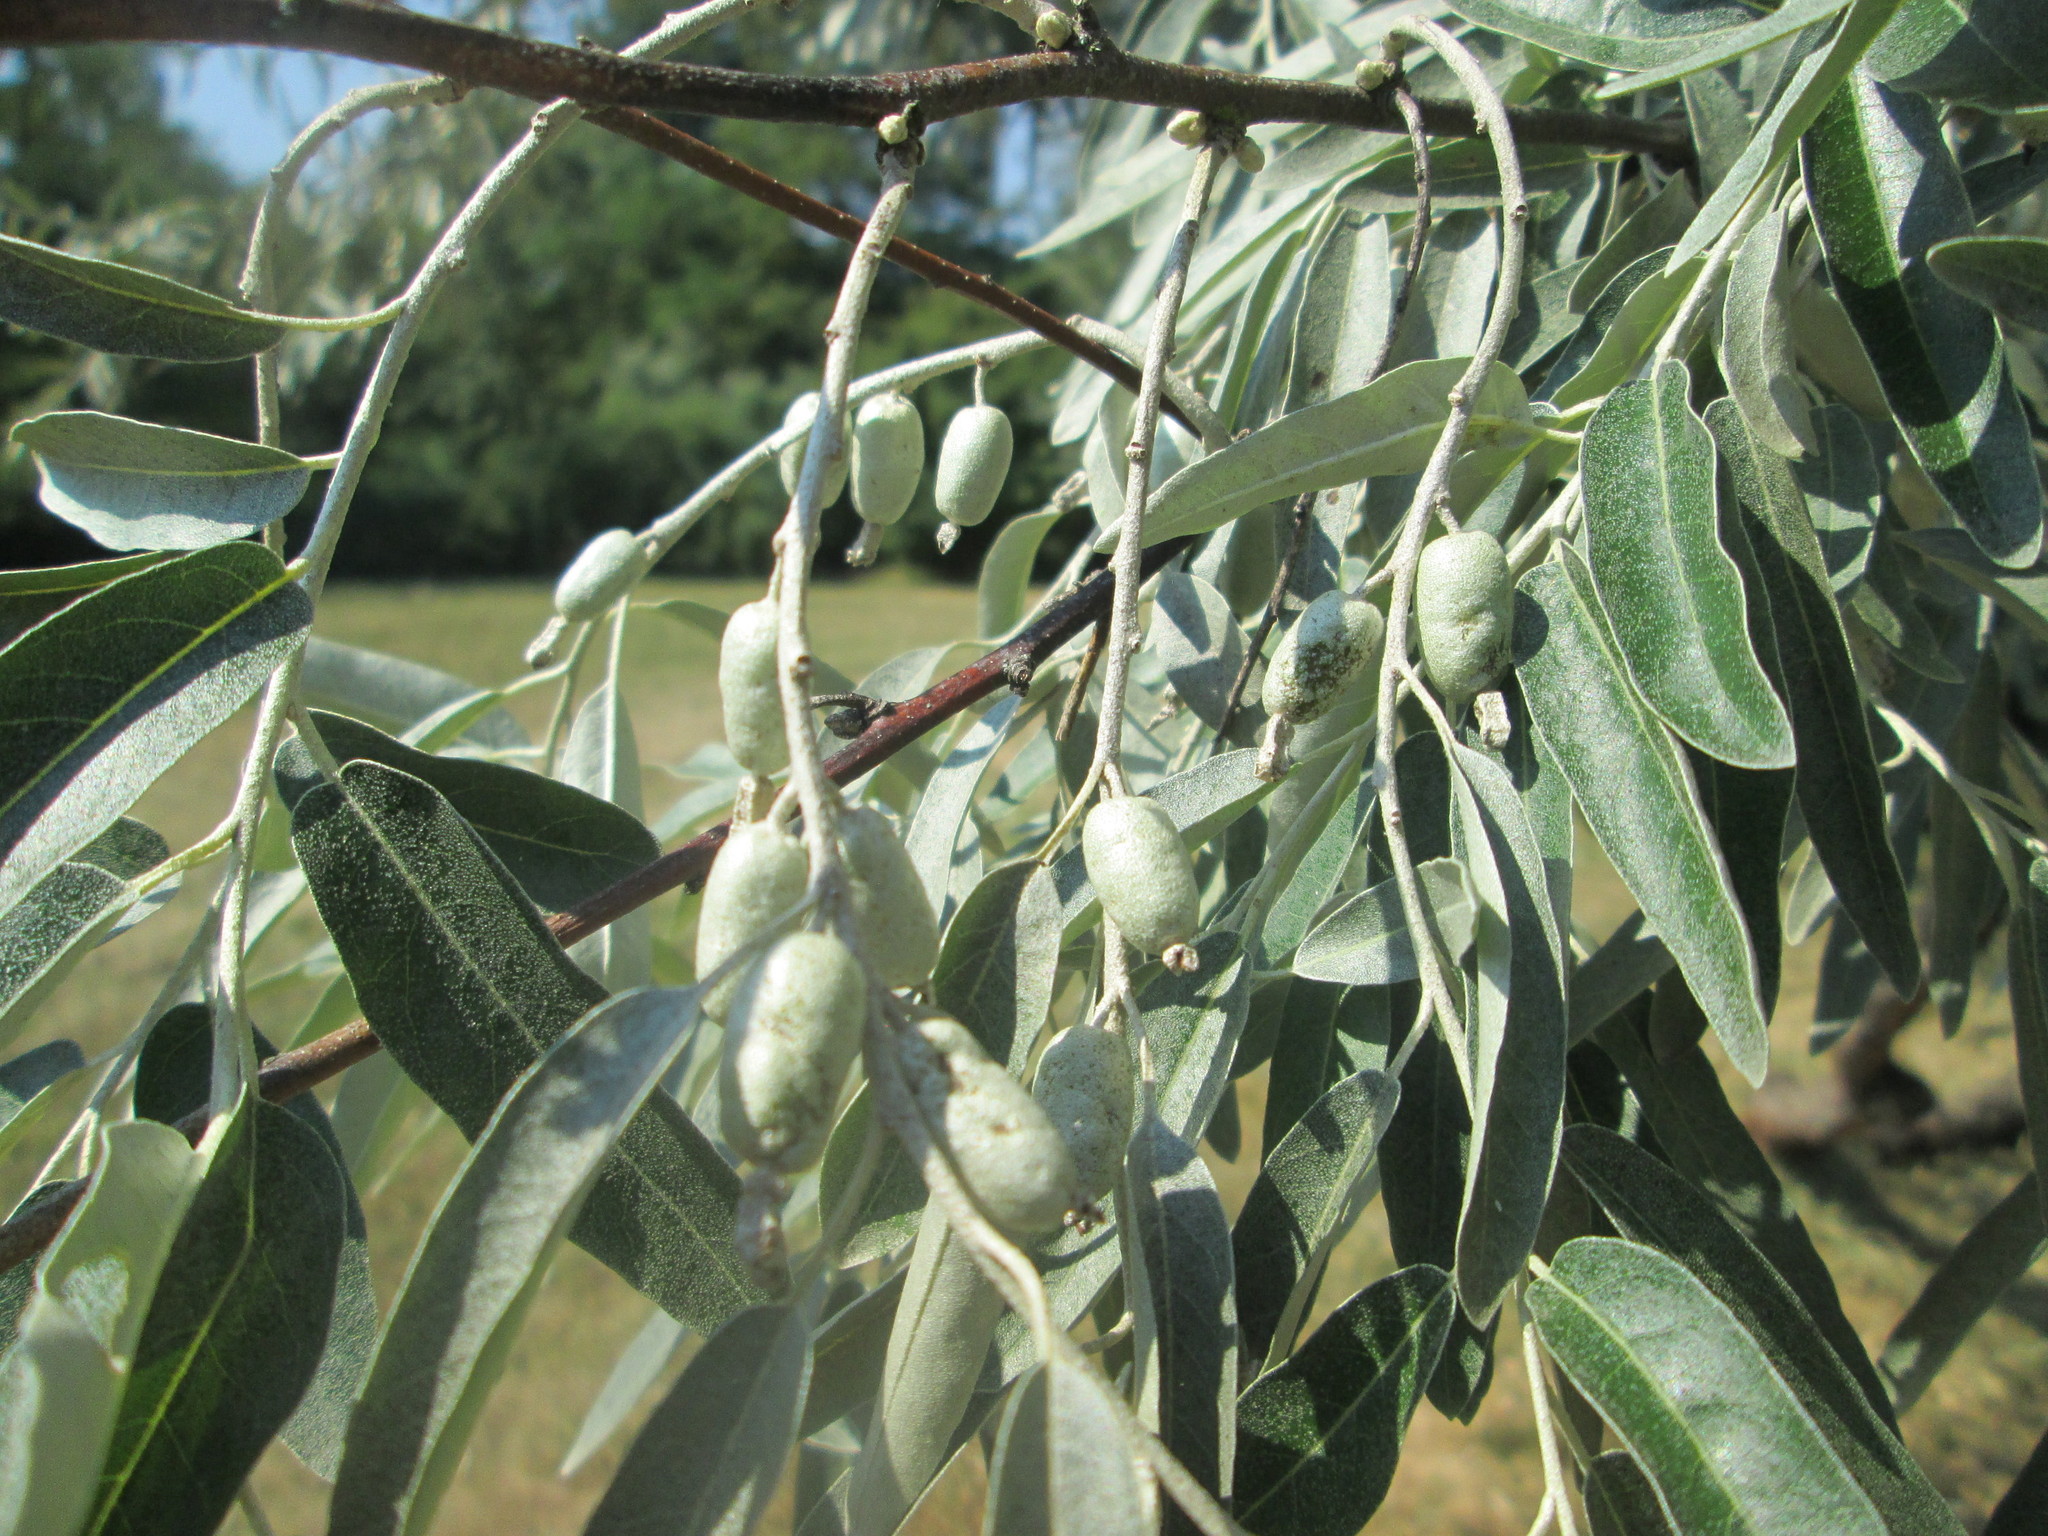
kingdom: Plantae
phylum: Tracheophyta
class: Magnoliopsida
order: Rosales
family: Elaeagnaceae
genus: Elaeagnus
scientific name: Elaeagnus angustifolia
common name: Russian olive
